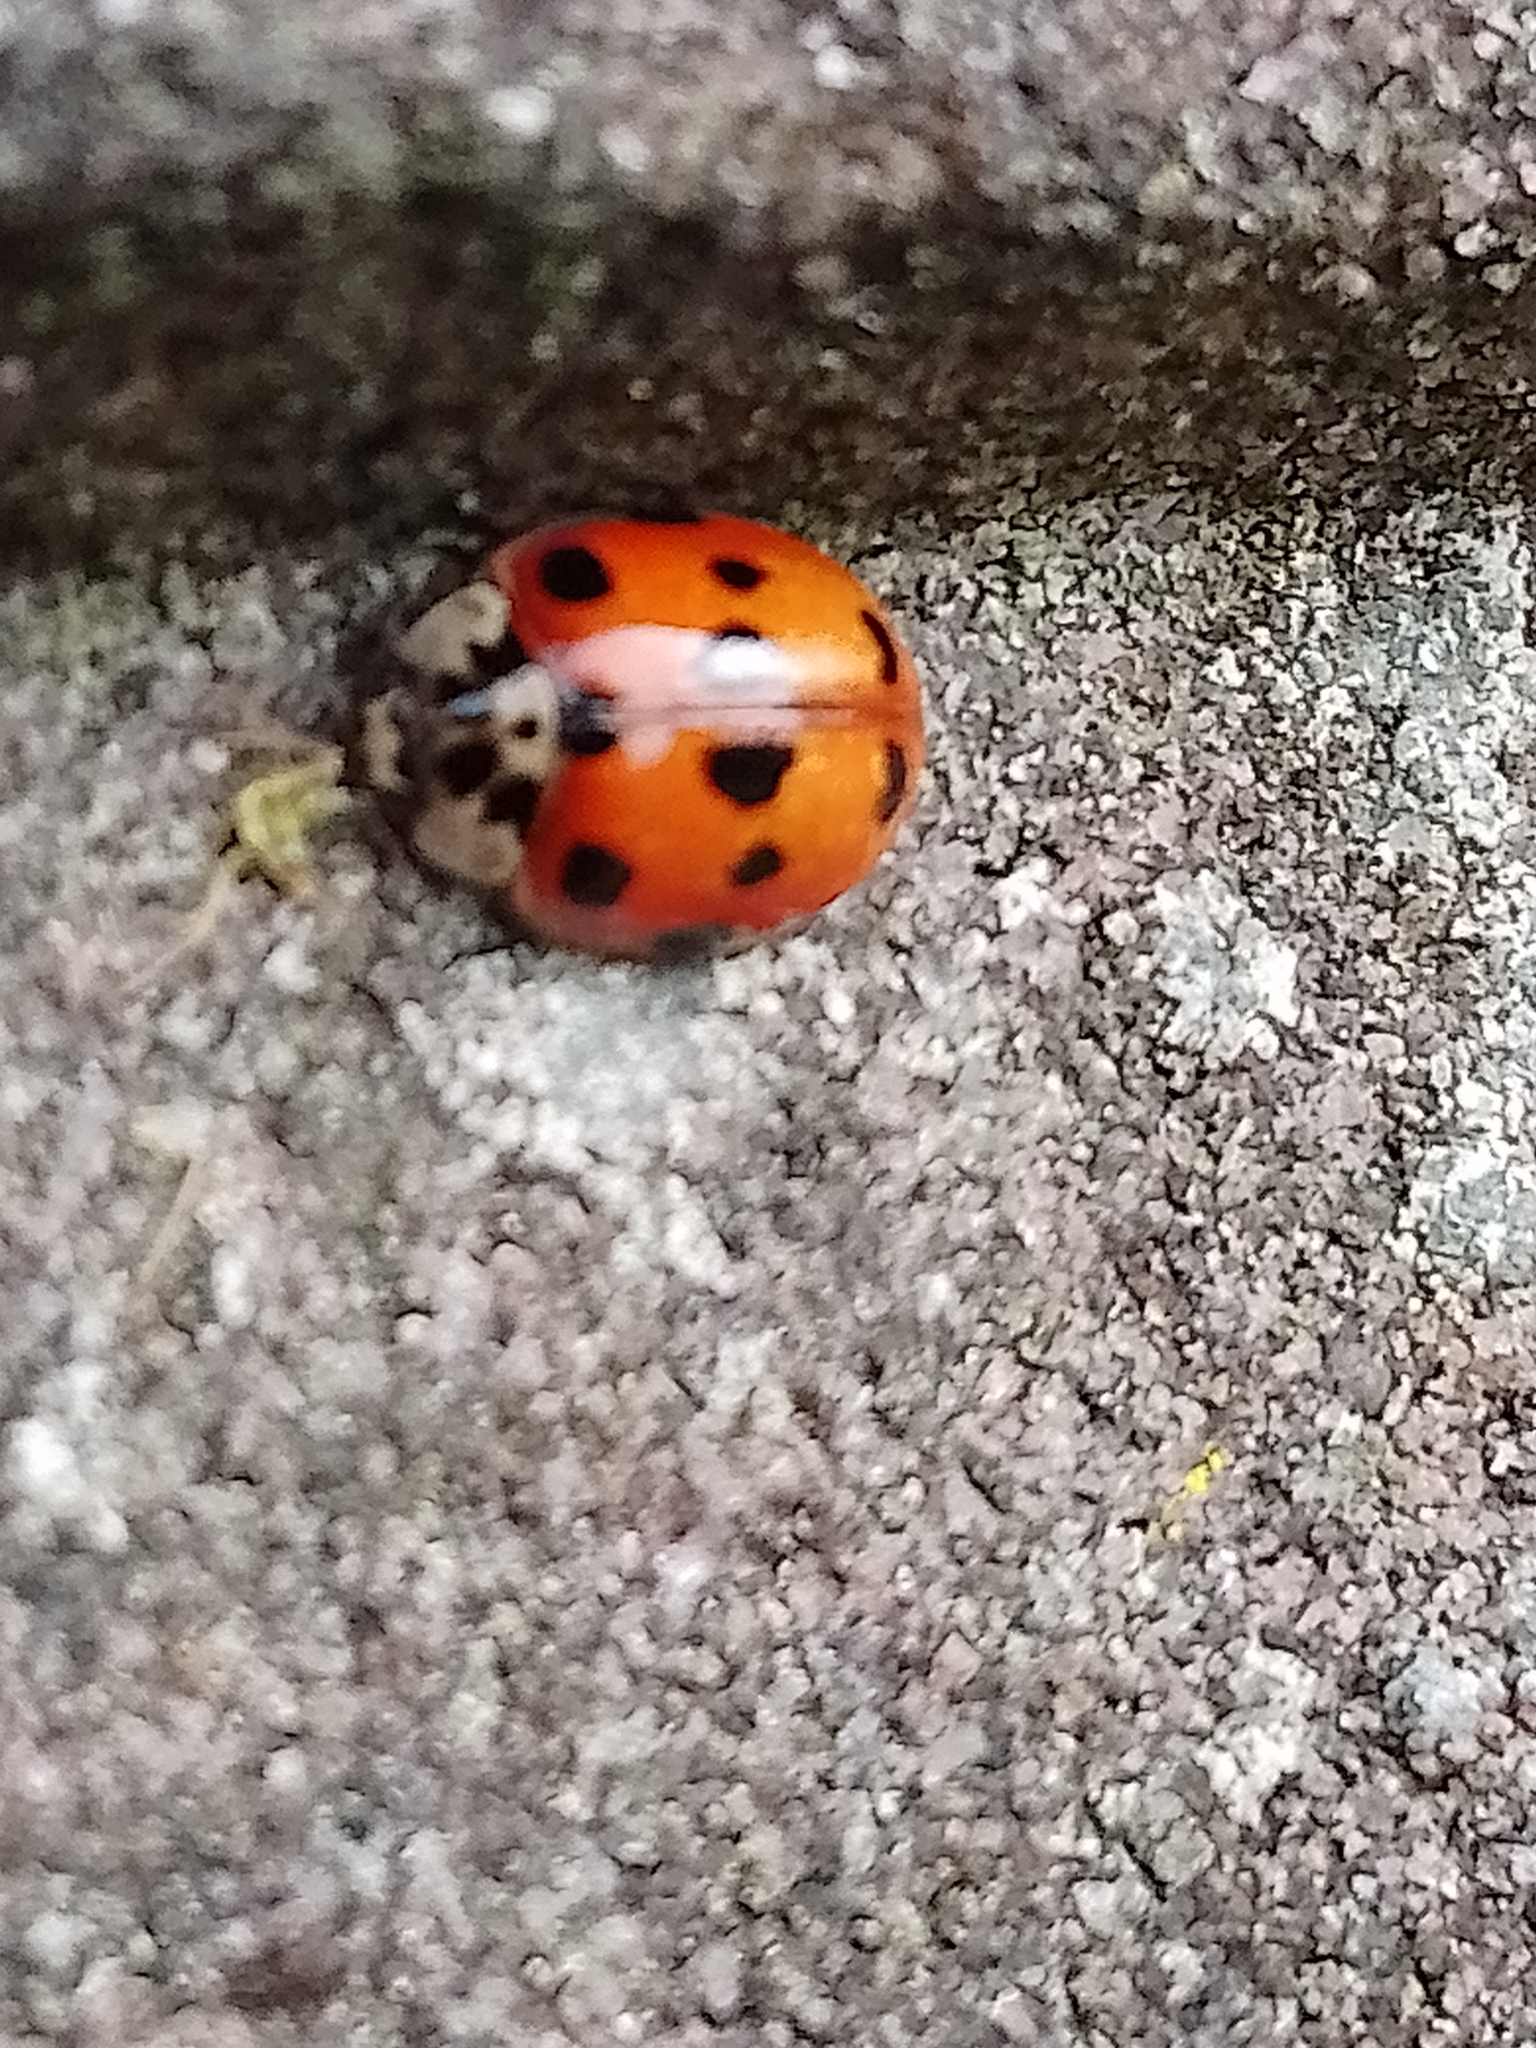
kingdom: Animalia
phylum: Arthropoda
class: Insecta
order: Coleoptera
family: Coccinellidae
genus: Adalia
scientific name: Adalia decempunctata
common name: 10-spot ladybird
